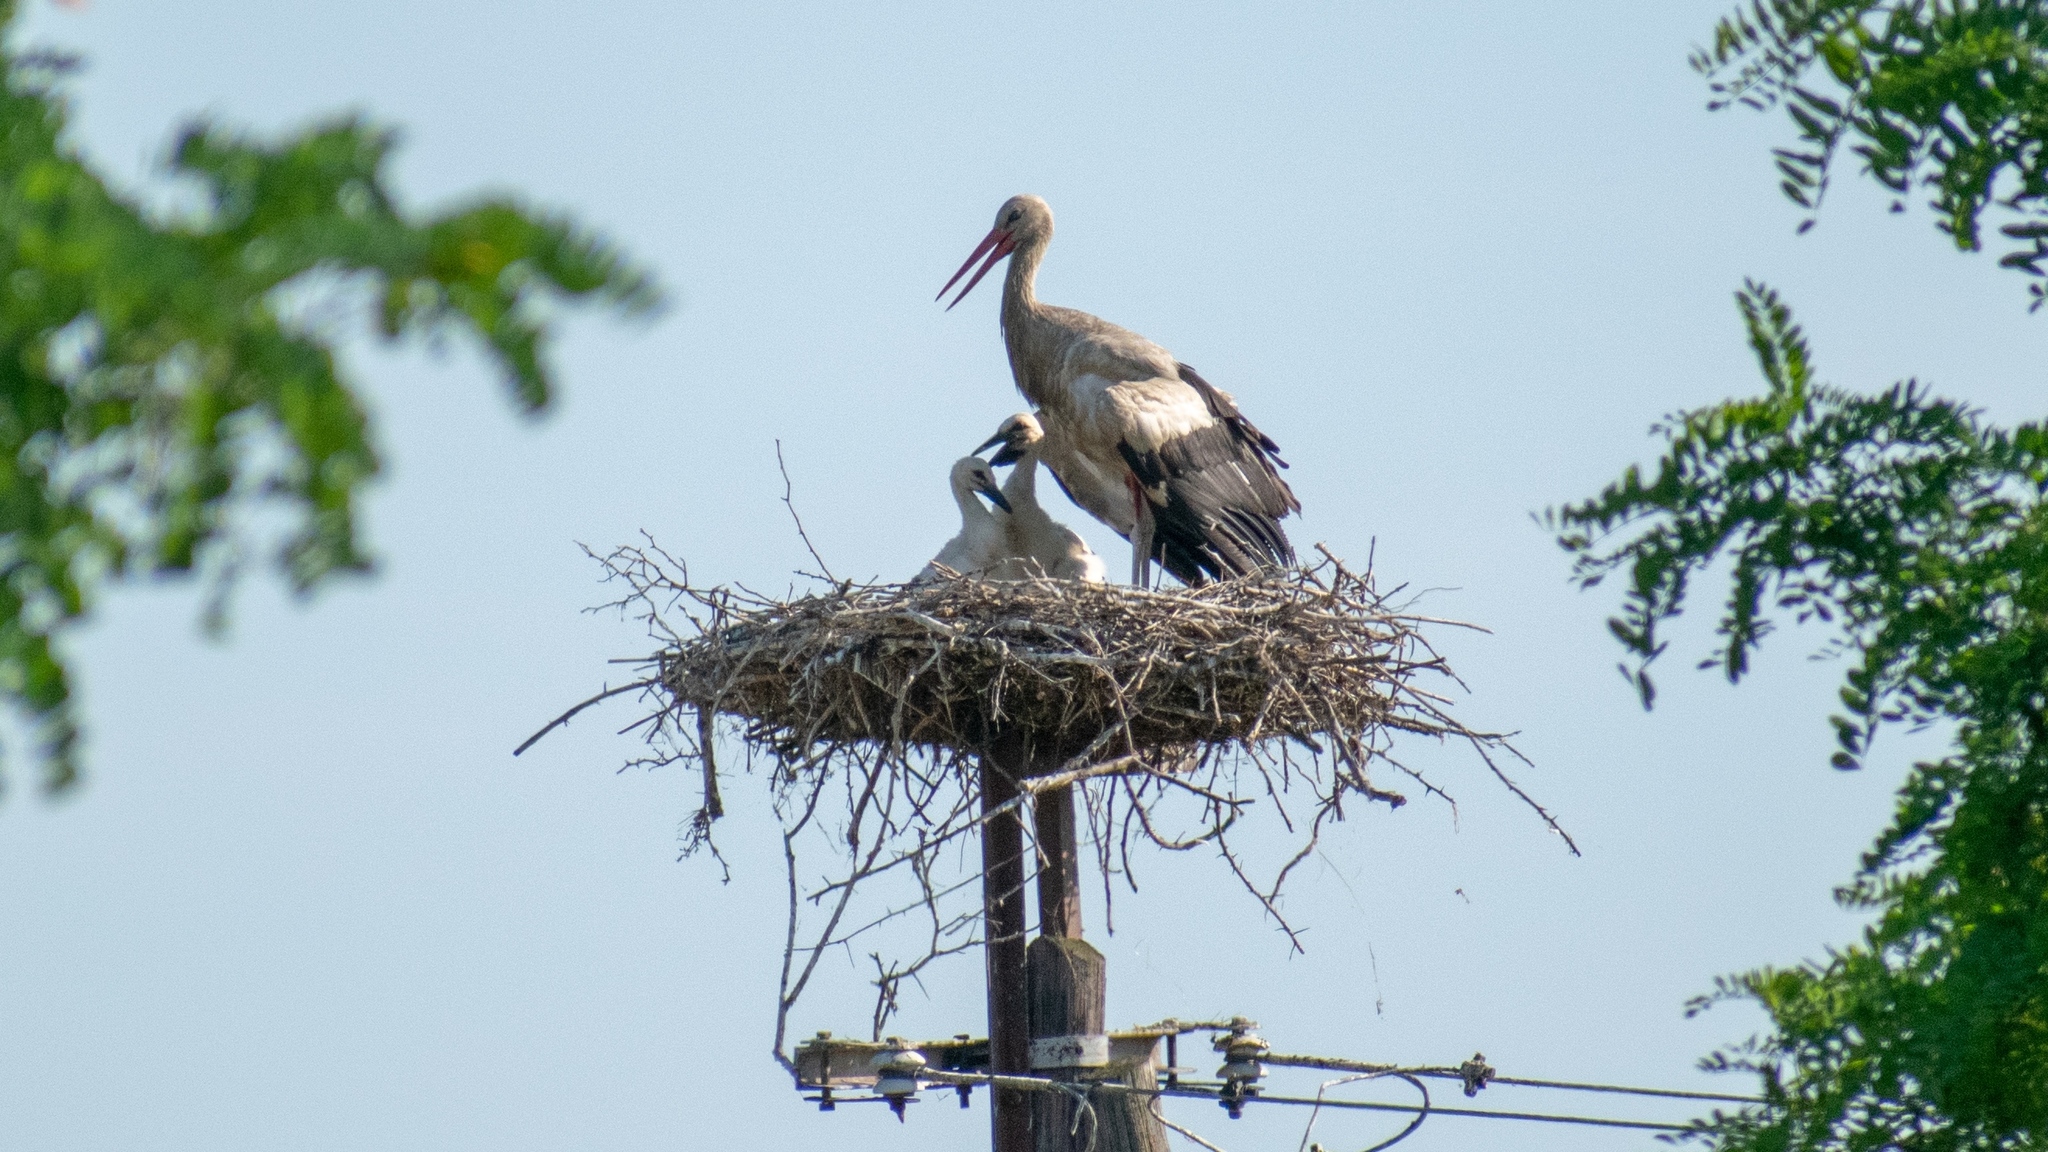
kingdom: Animalia
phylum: Chordata
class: Aves
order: Ciconiiformes
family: Ciconiidae
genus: Ciconia
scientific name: Ciconia ciconia
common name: White stork
